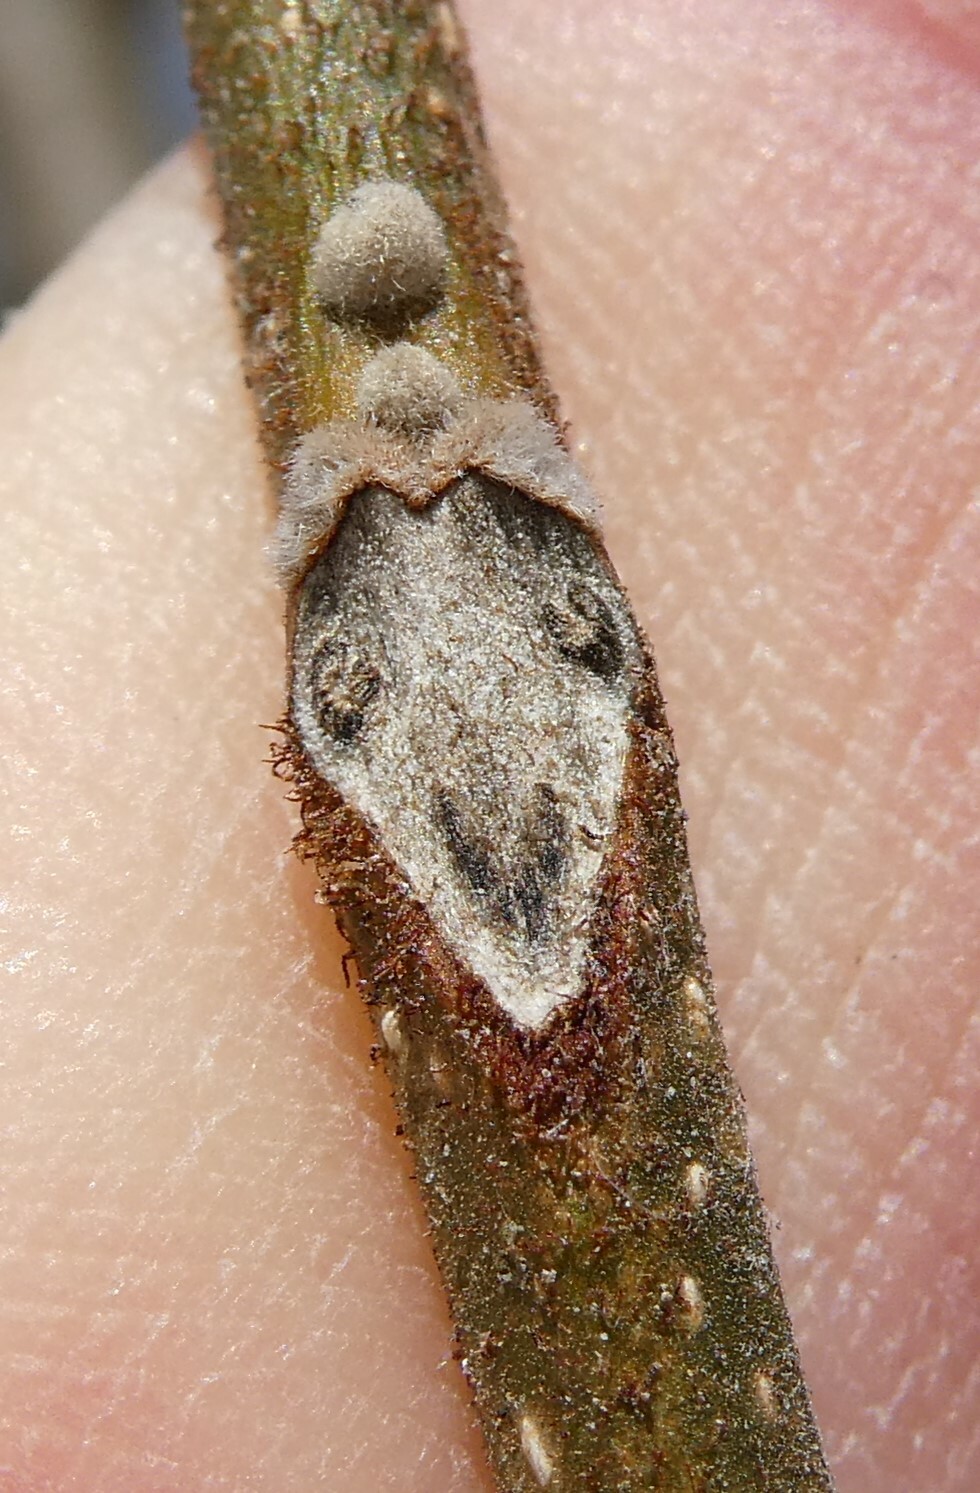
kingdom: Plantae
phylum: Tracheophyta
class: Magnoliopsida
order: Fagales
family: Juglandaceae
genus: Juglans
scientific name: Juglans cinerea
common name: Butternut
